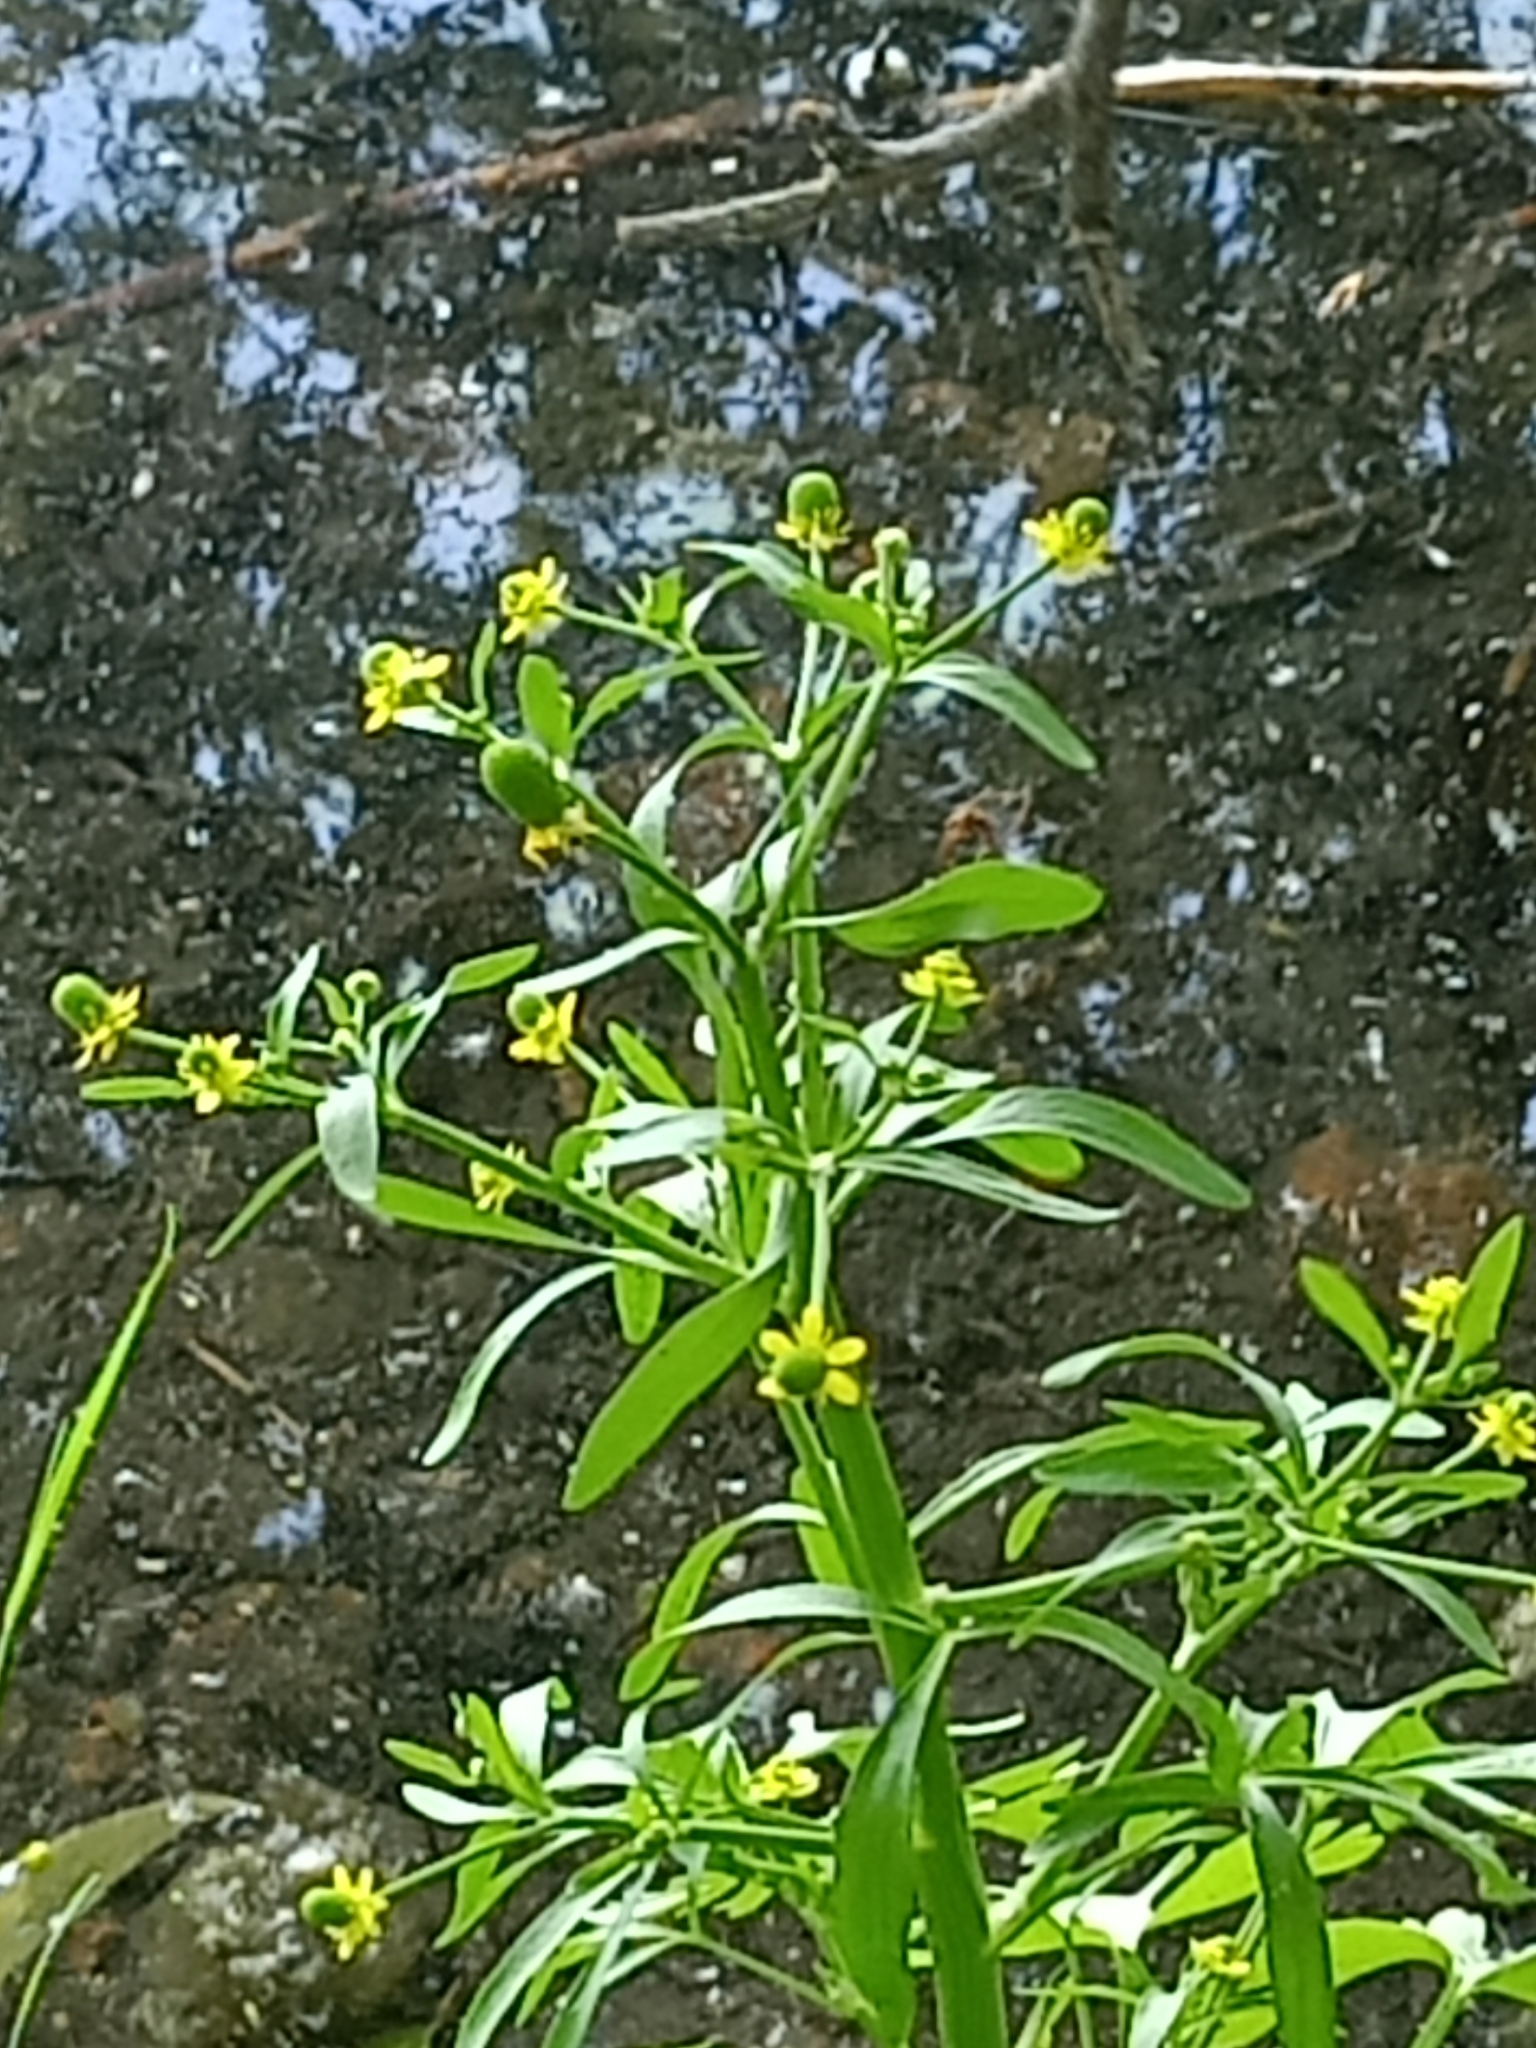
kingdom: Plantae
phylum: Tracheophyta
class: Magnoliopsida
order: Ranunculales
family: Ranunculaceae
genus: Ranunculus
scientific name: Ranunculus sceleratus
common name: Celery-leaved buttercup
